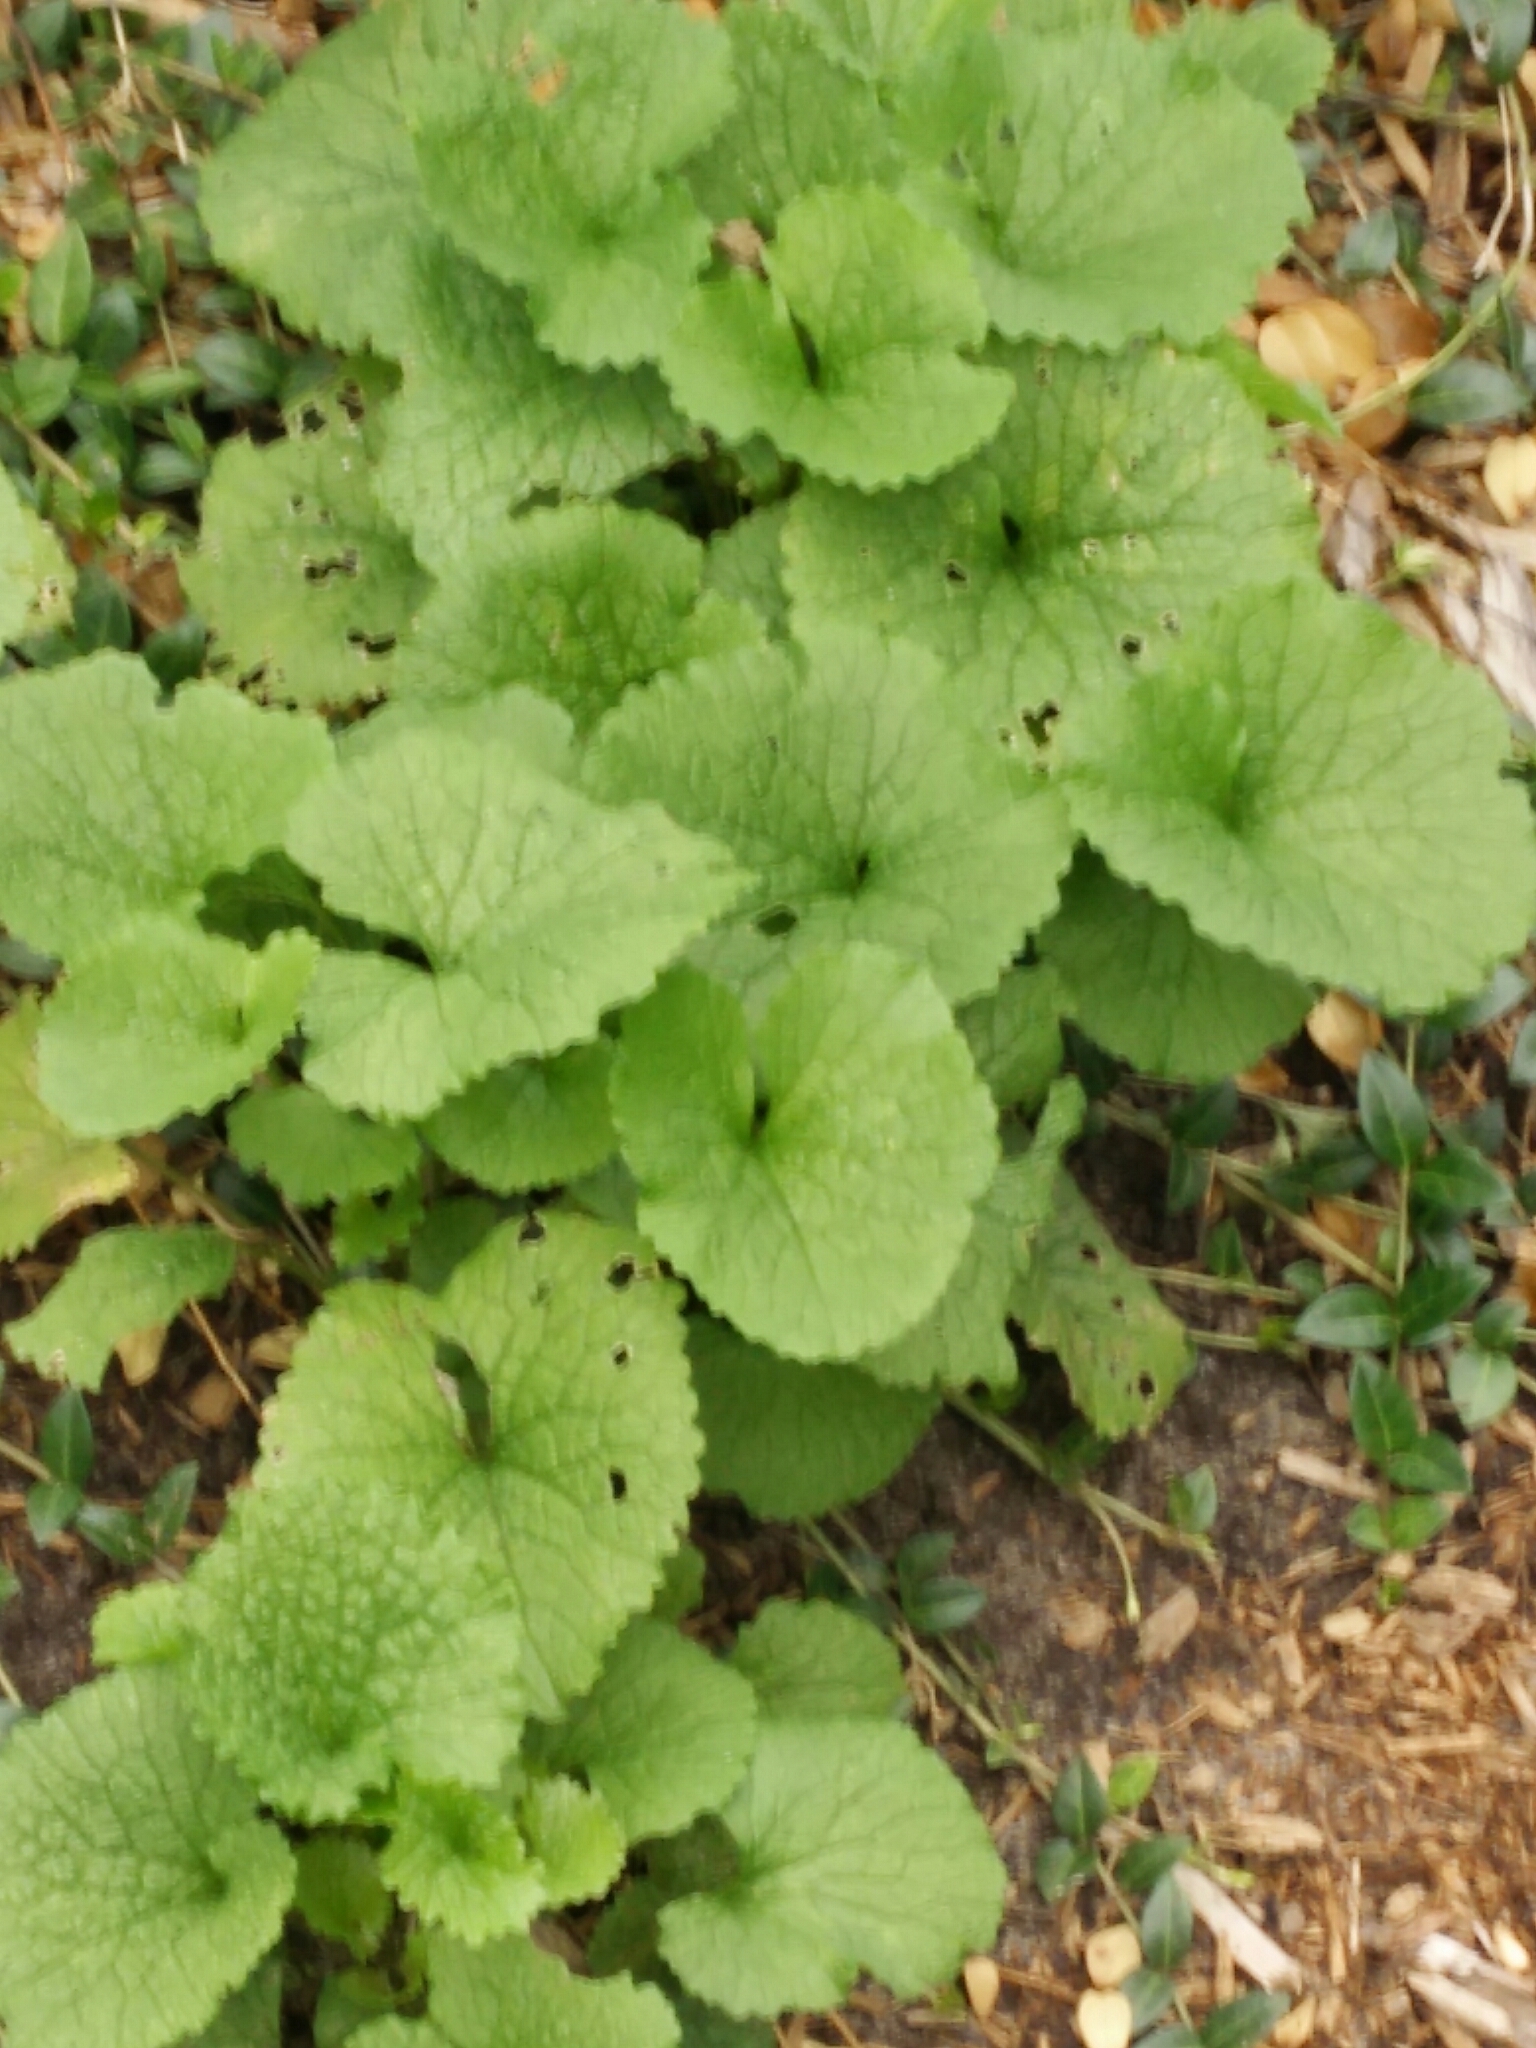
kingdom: Plantae
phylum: Tracheophyta
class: Magnoliopsida
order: Brassicales
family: Brassicaceae
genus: Alliaria
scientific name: Alliaria petiolata
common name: Garlic mustard
